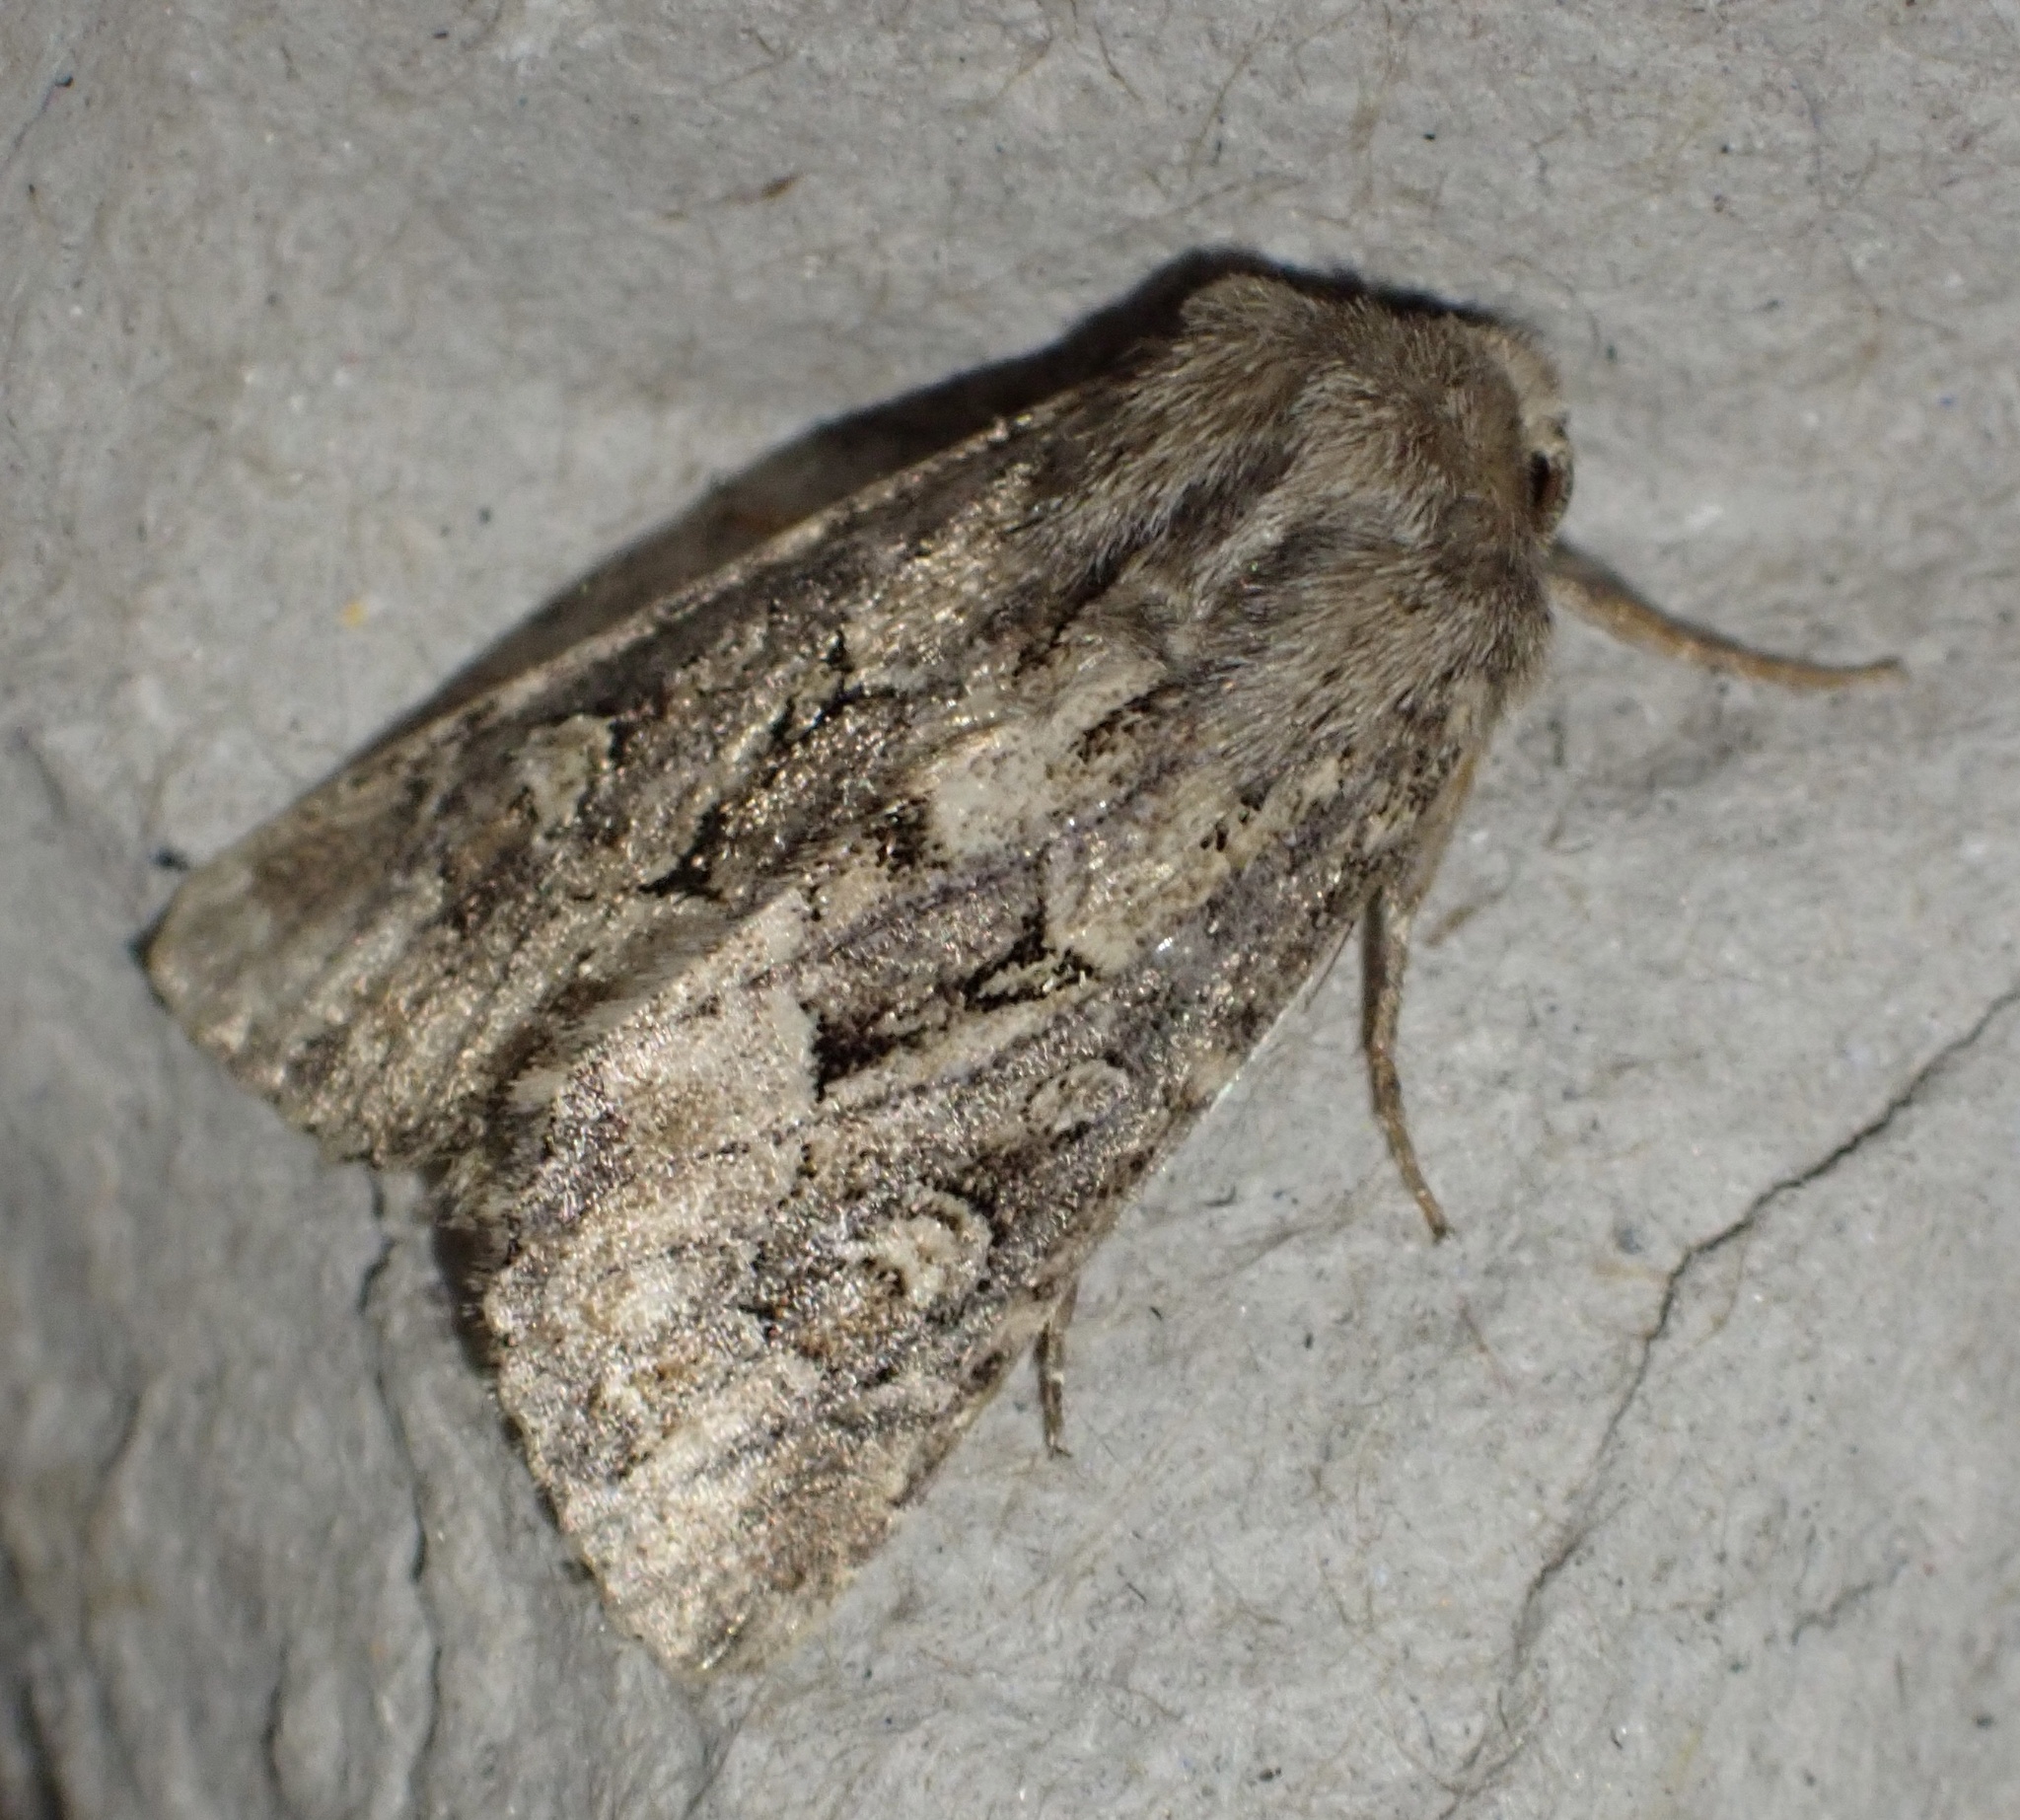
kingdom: Animalia
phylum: Arthropoda
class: Insecta
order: Lepidoptera
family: Noctuidae
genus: Luperina
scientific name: Luperina testacea
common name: Flounced rustic
